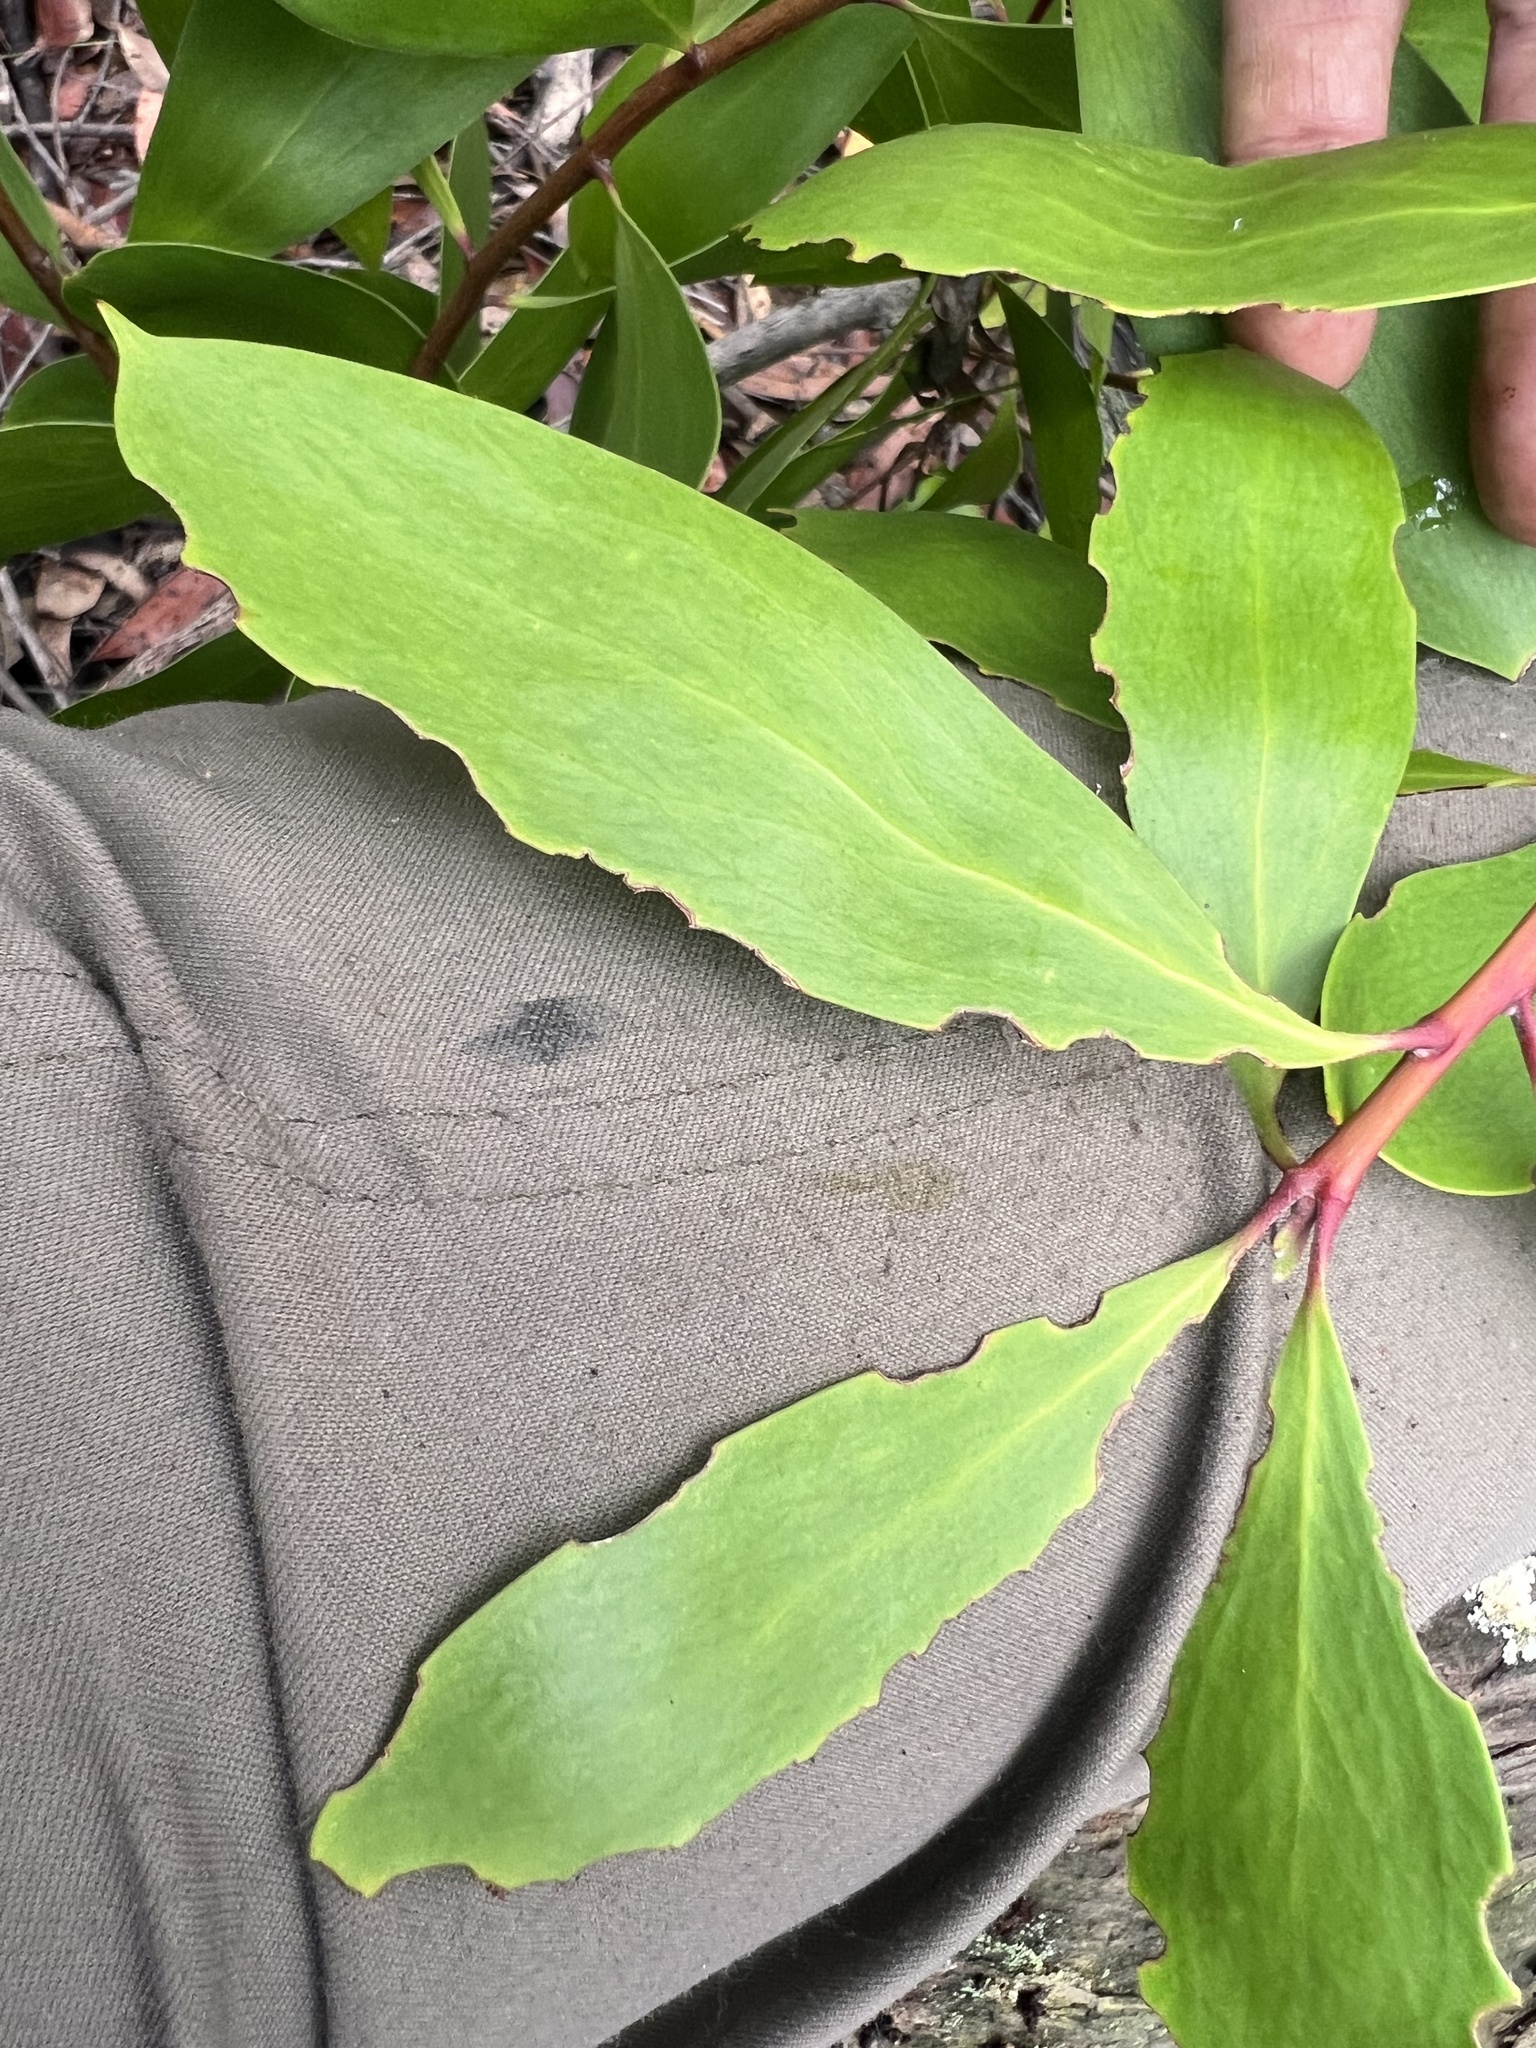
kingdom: Plantae
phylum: Tracheophyta
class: Magnoliopsida
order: Proteales
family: Proteaceae
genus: Persoonia
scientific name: Persoonia levis
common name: Smooth geebung
